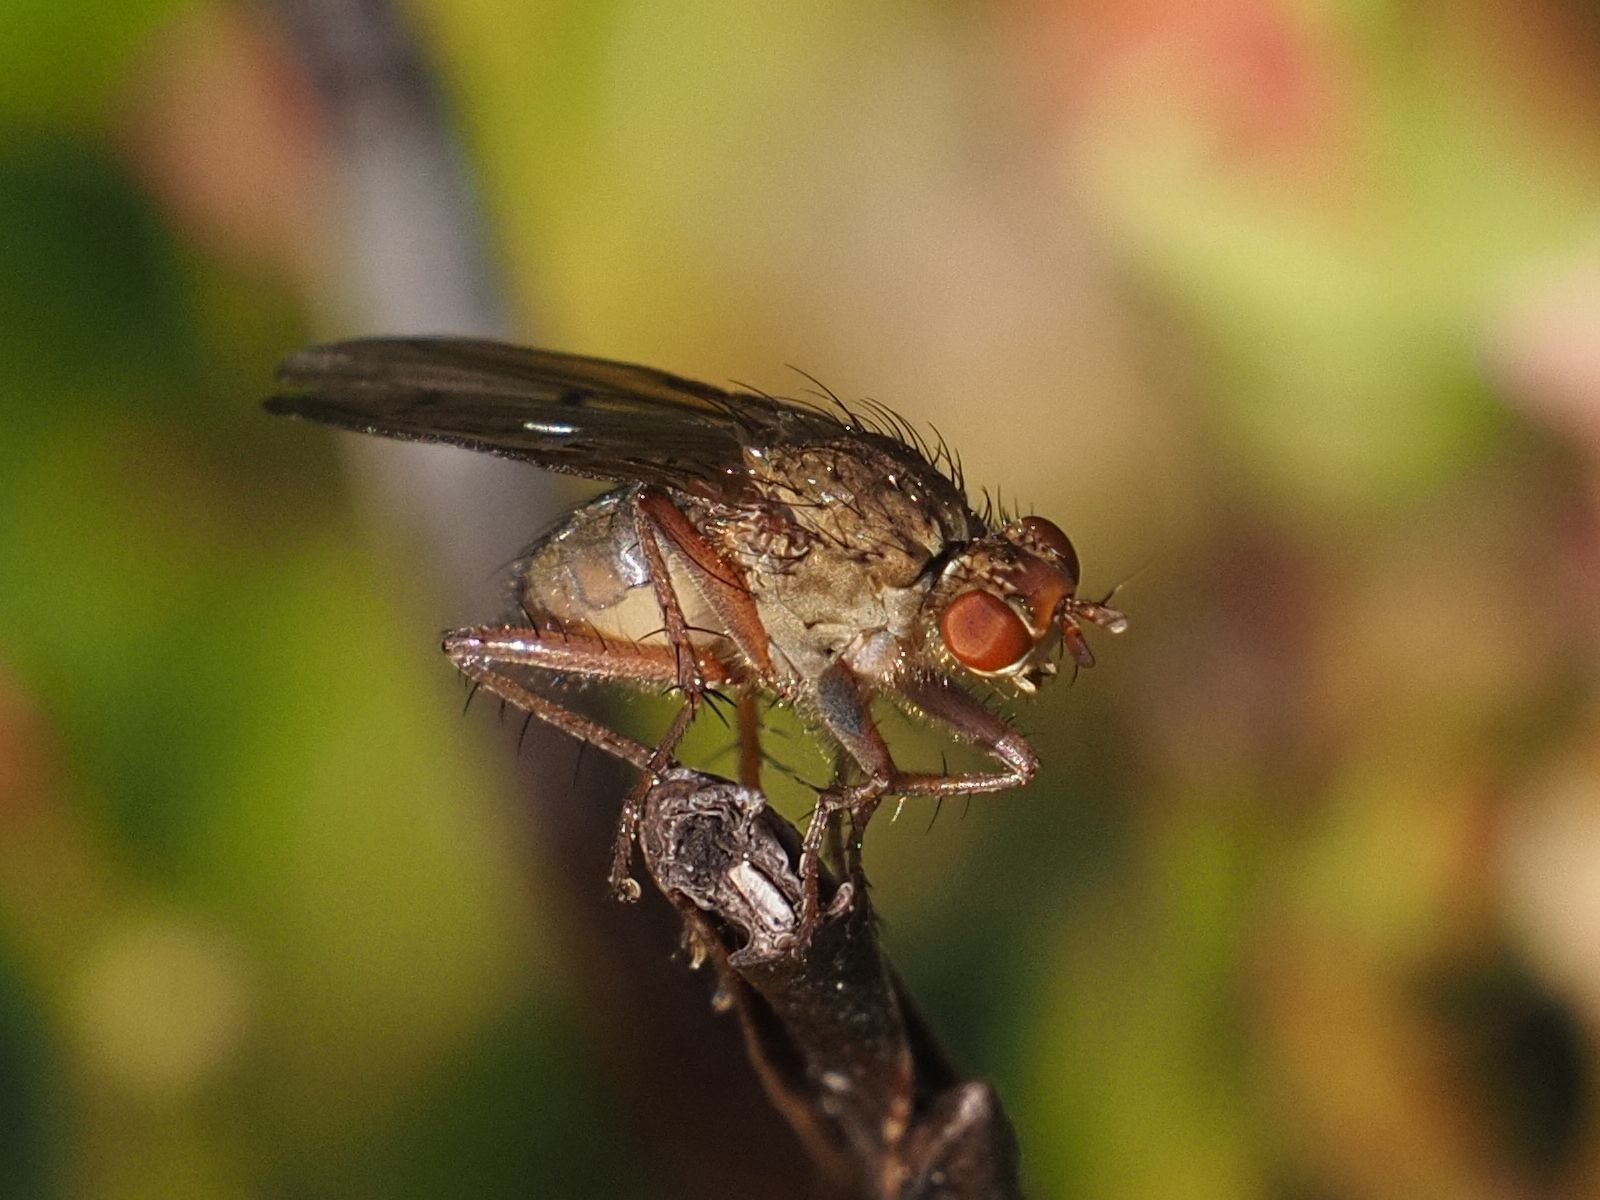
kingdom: Animalia
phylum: Arthropoda
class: Insecta
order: Diptera
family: Scathophagidae
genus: Scathophaga
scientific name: Scathophaga furcata
